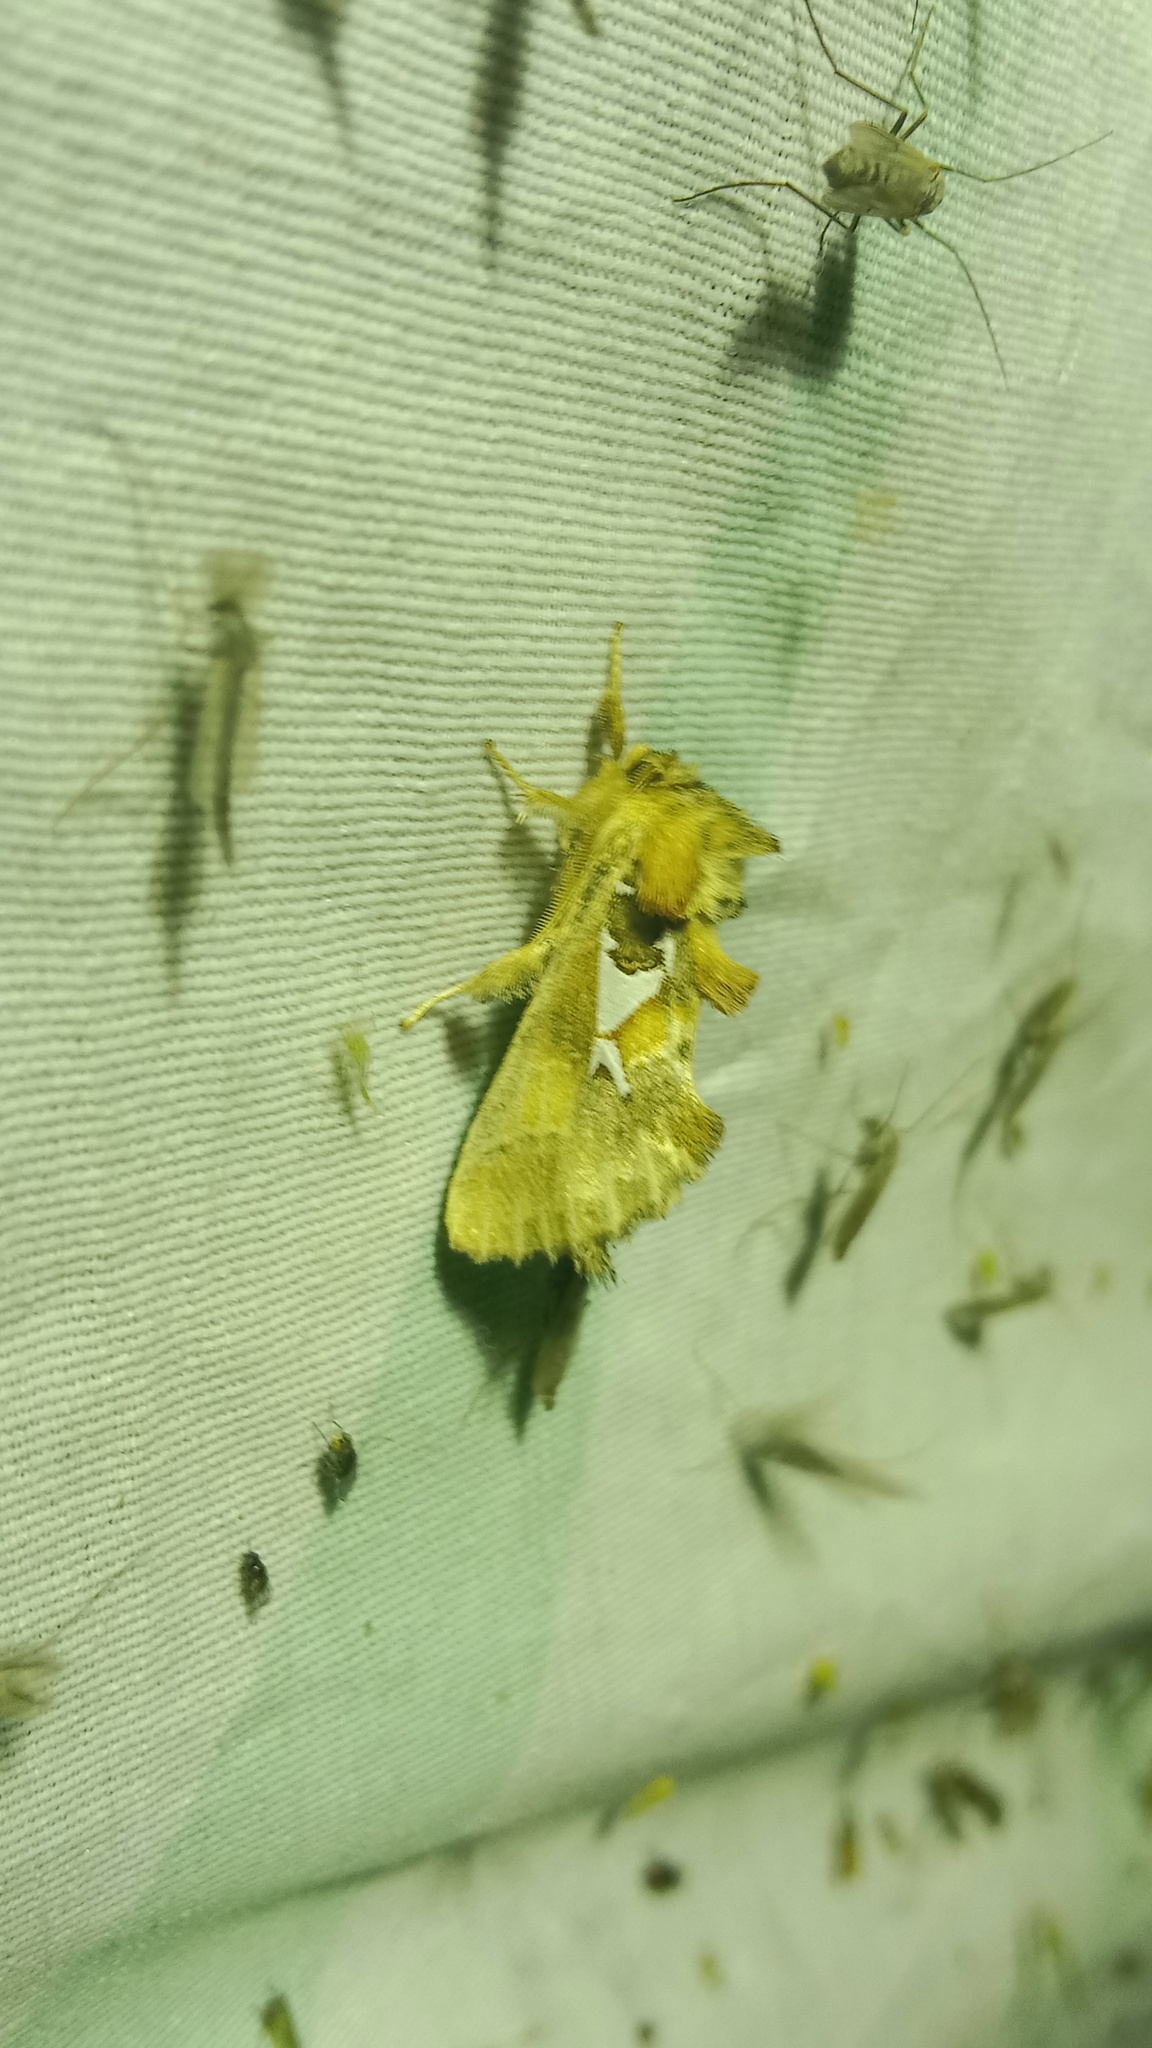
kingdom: Animalia
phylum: Arthropoda
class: Insecta
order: Lepidoptera
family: Notodontidae
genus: Spatalia
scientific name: Spatalia argentina
